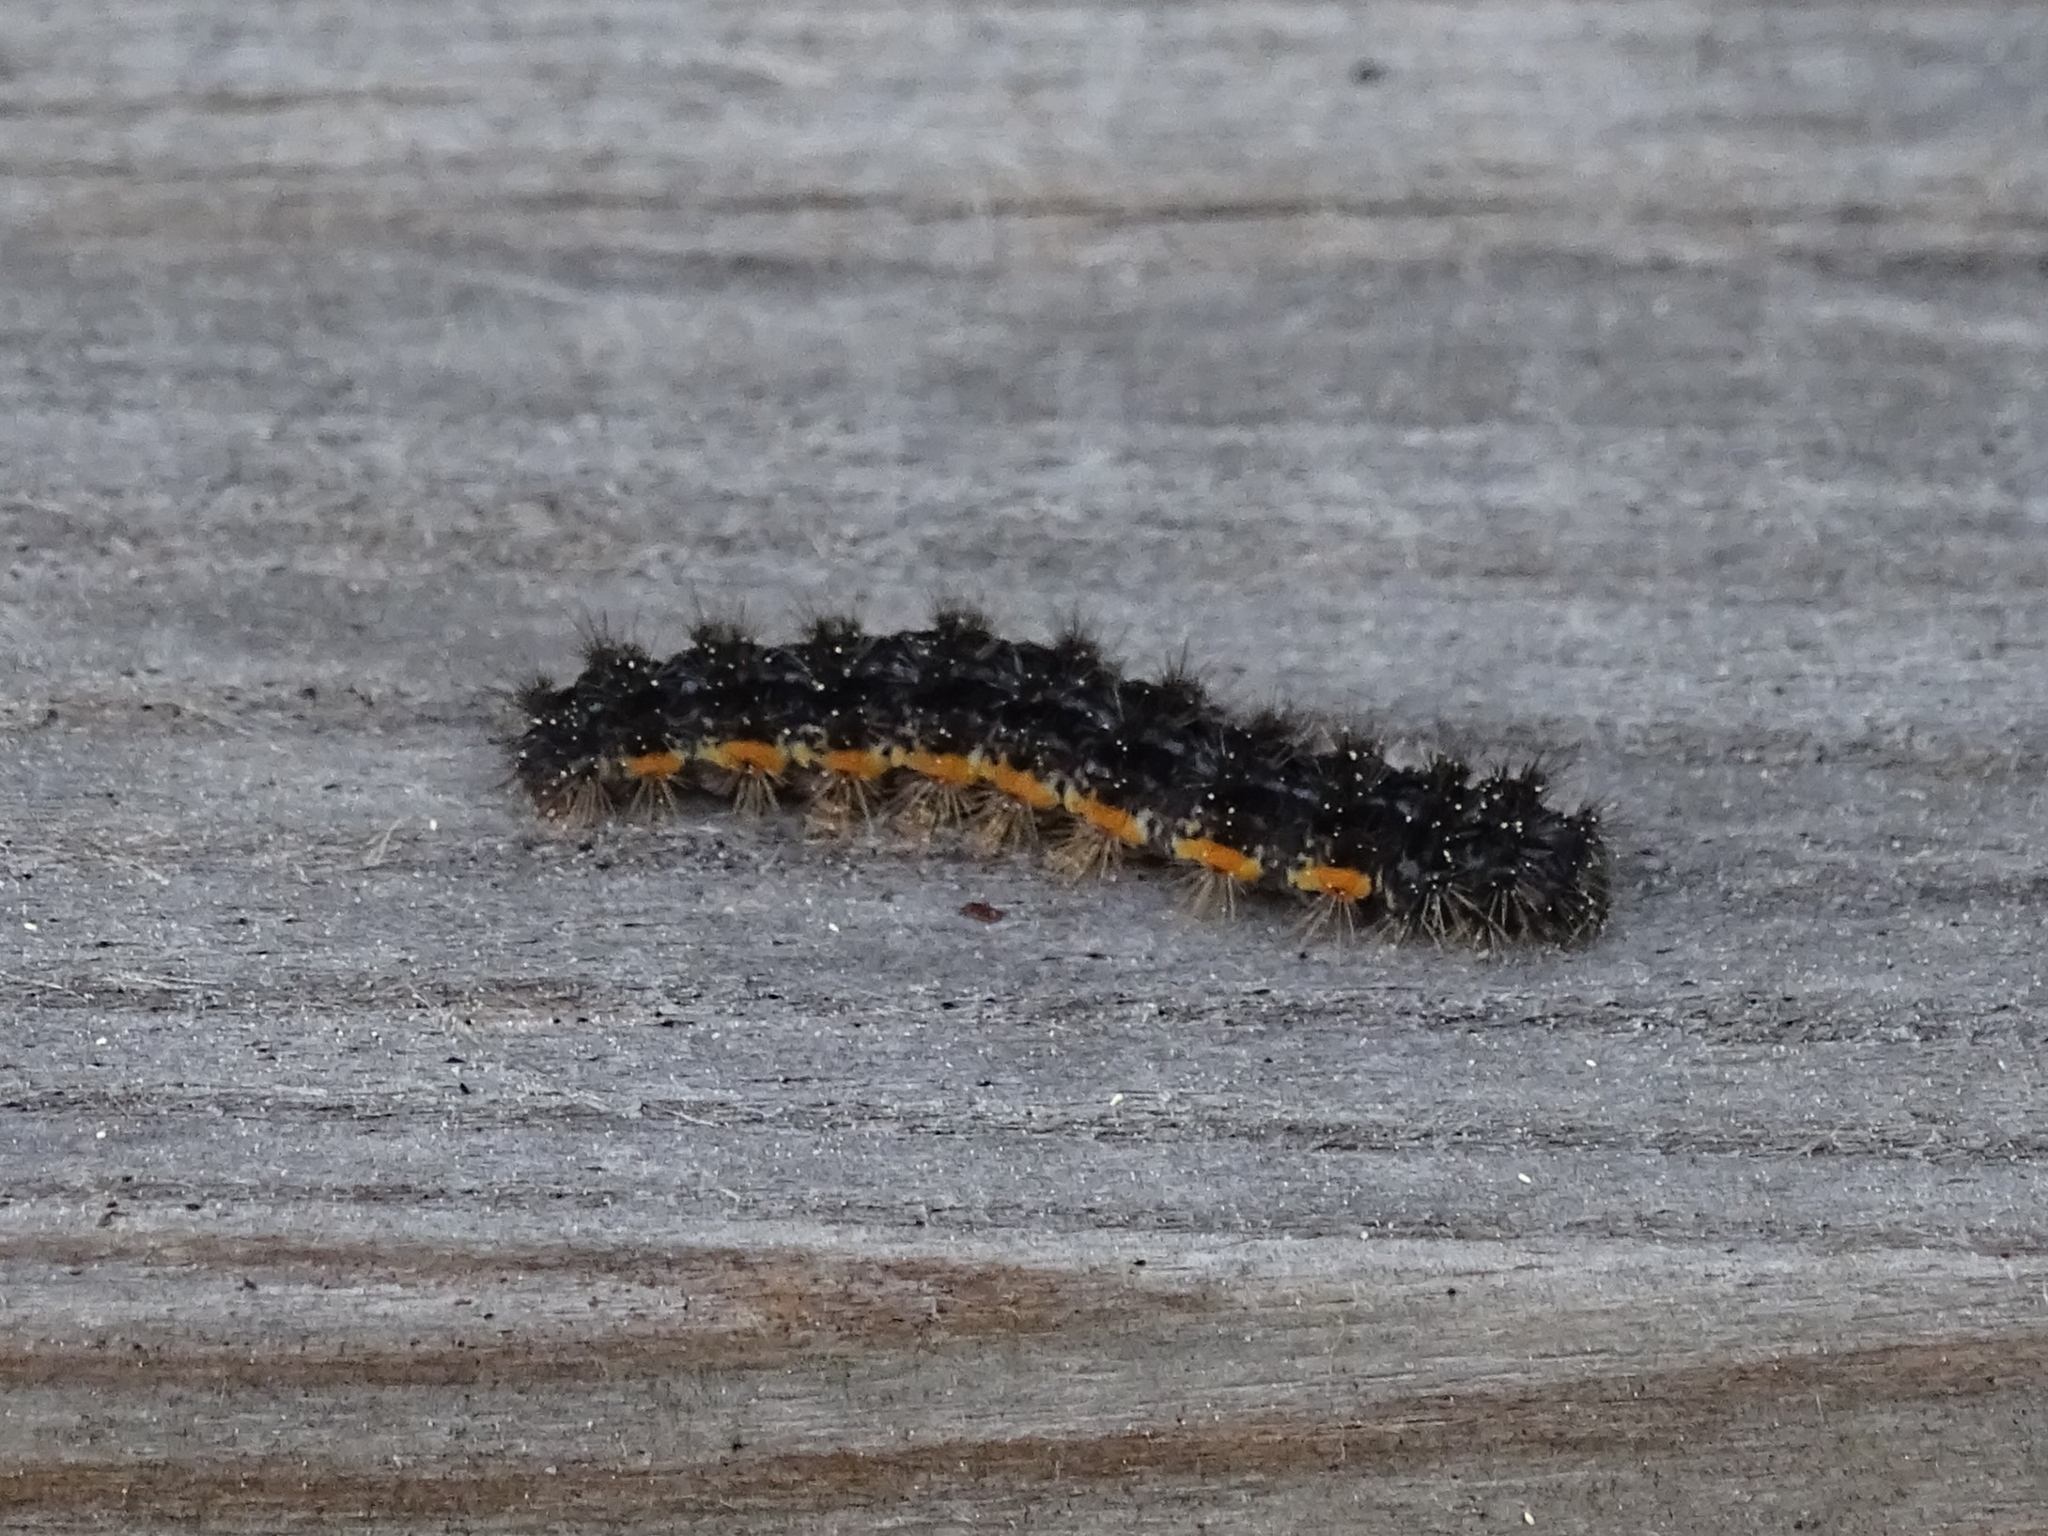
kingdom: Animalia
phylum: Arthropoda
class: Insecta
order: Lepidoptera
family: Erebidae
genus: Nyea
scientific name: Nyea lurideola
